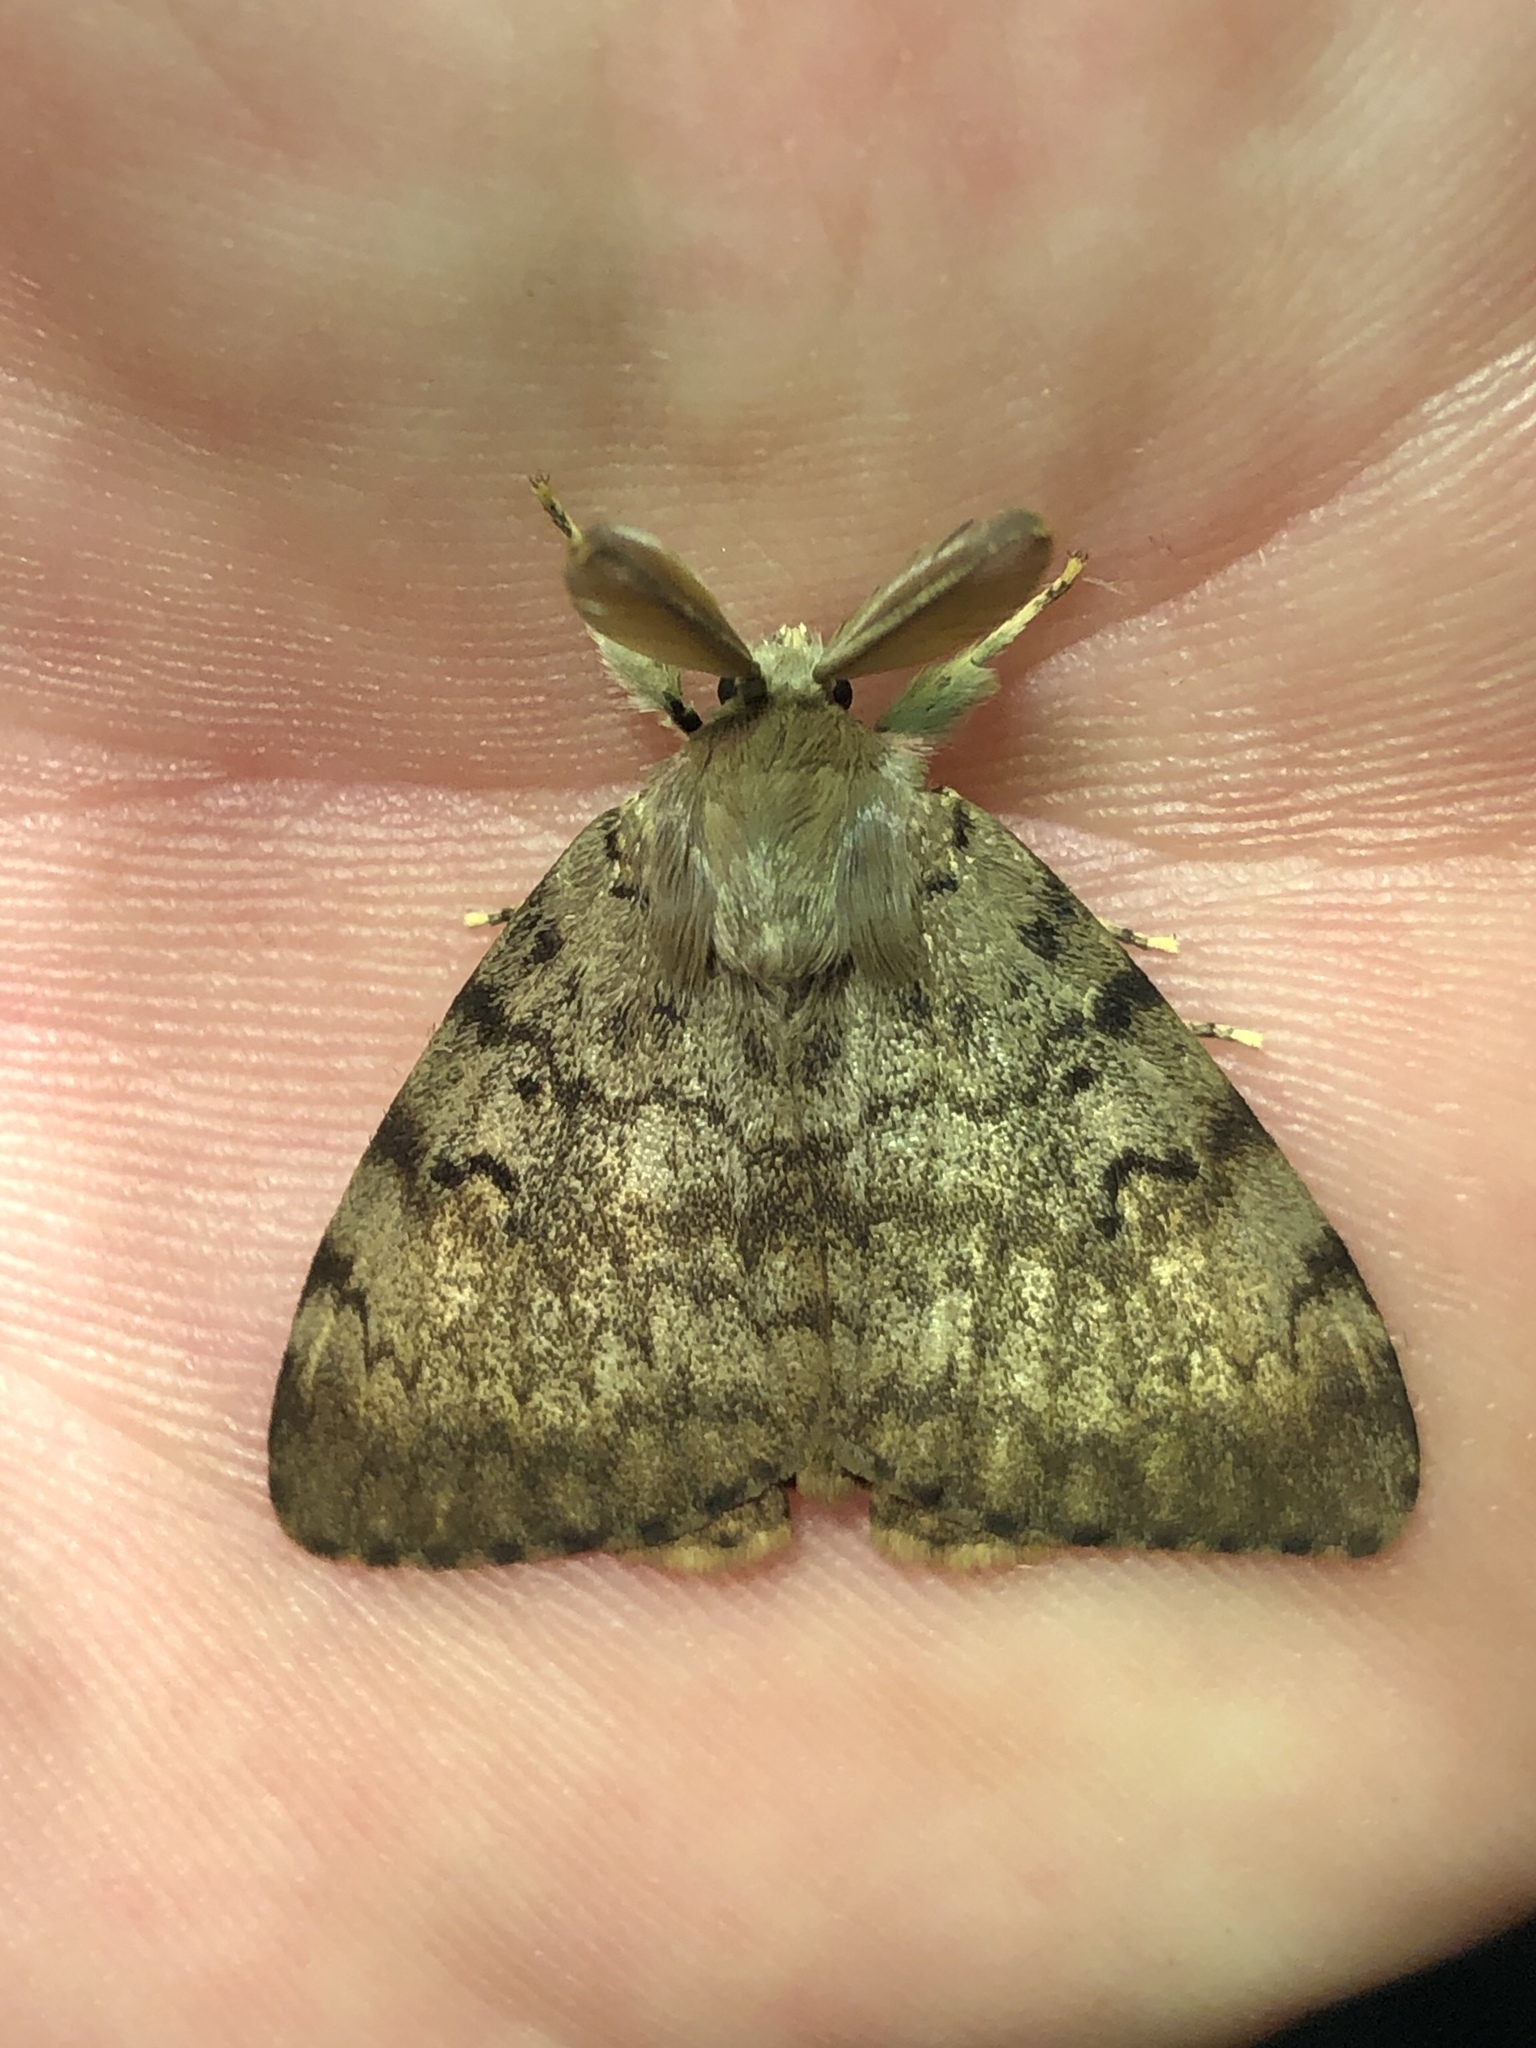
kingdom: Animalia
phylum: Arthropoda
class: Insecta
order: Lepidoptera
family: Erebidae
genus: Lymantria
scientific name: Lymantria dispar
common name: Gypsy moth
